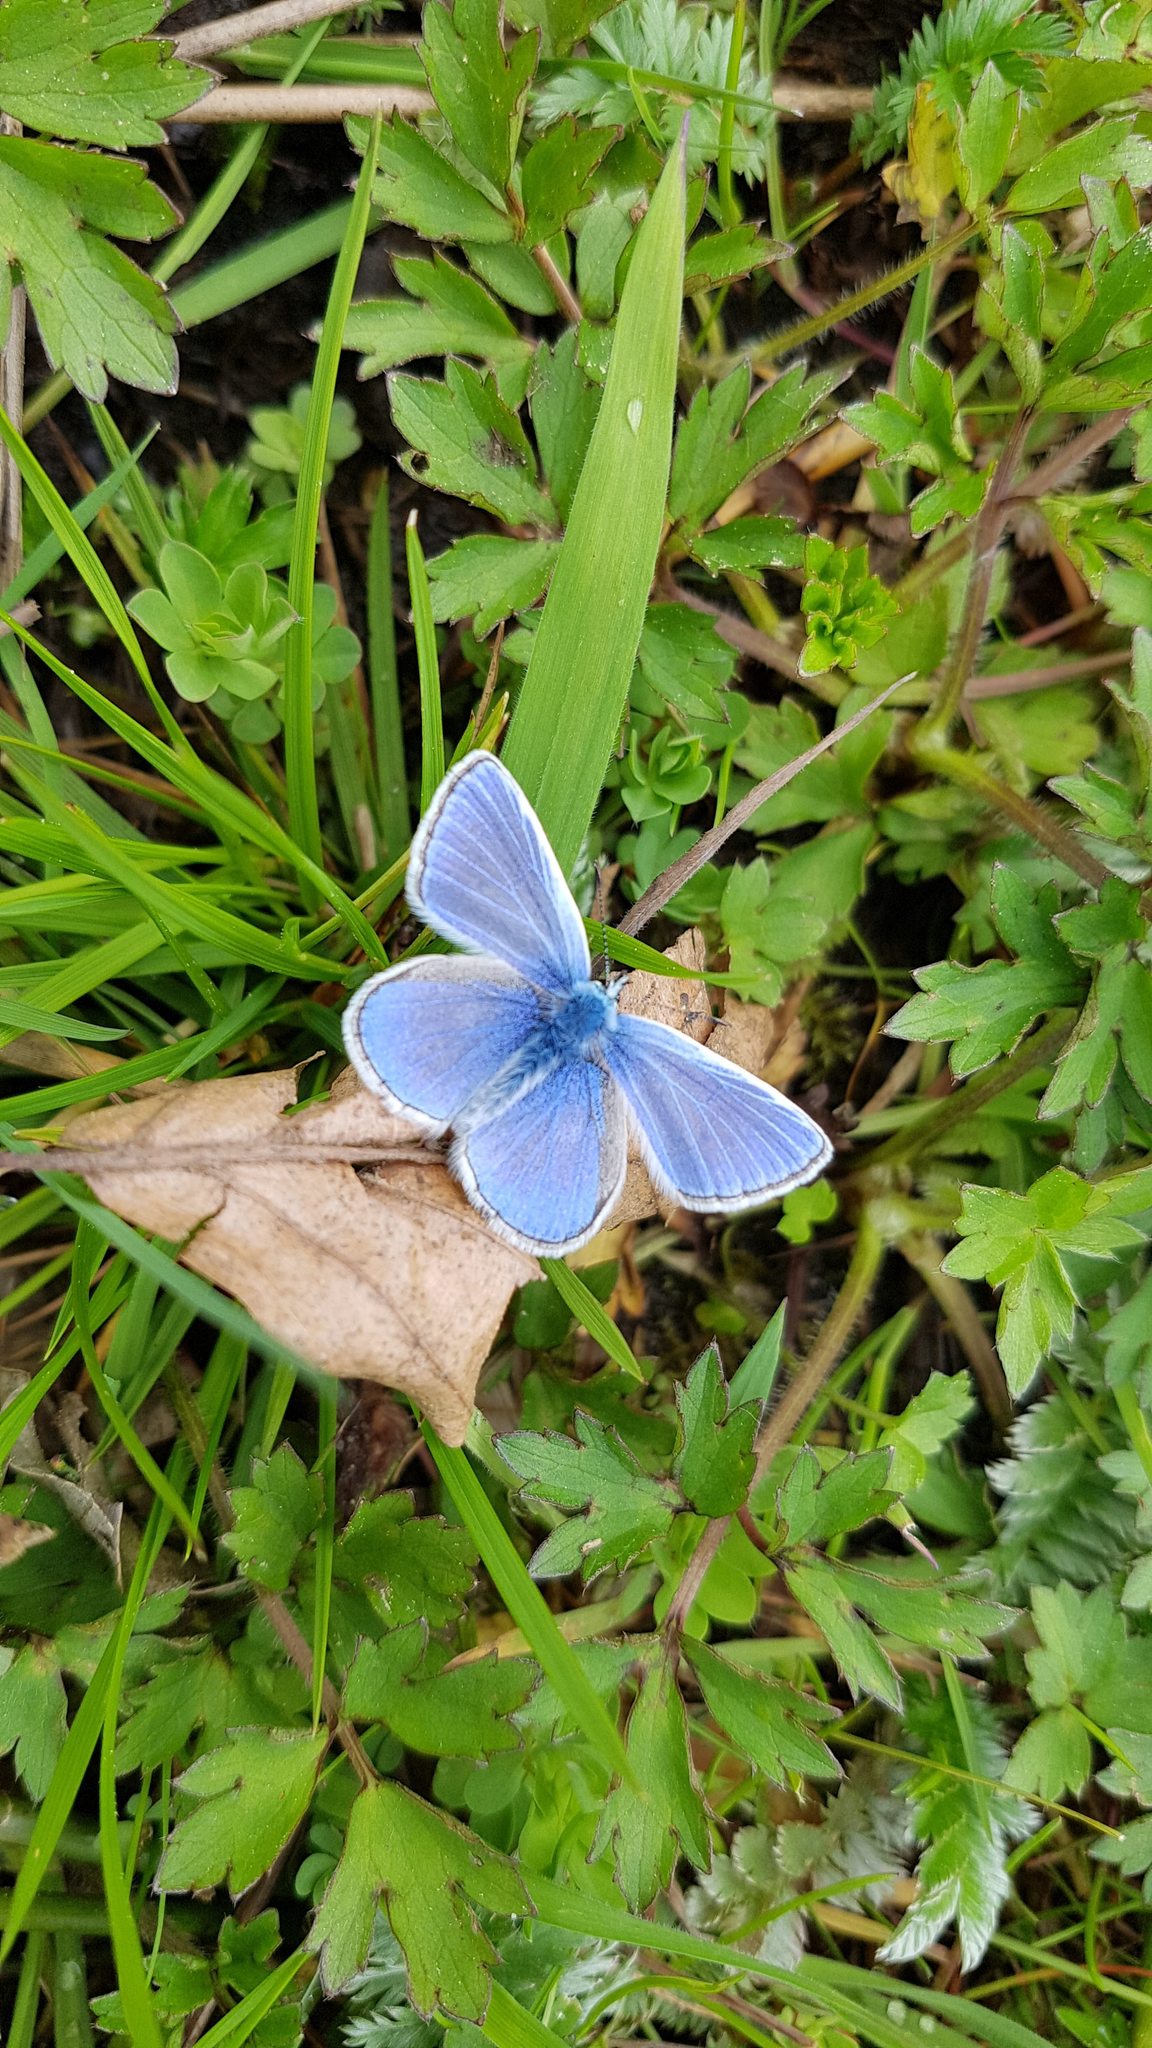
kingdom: Animalia
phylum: Arthropoda
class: Insecta
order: Lepidoptera
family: Lycaenidae
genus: Polyommatus
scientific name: Polyommatus icarus
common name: Common blue
